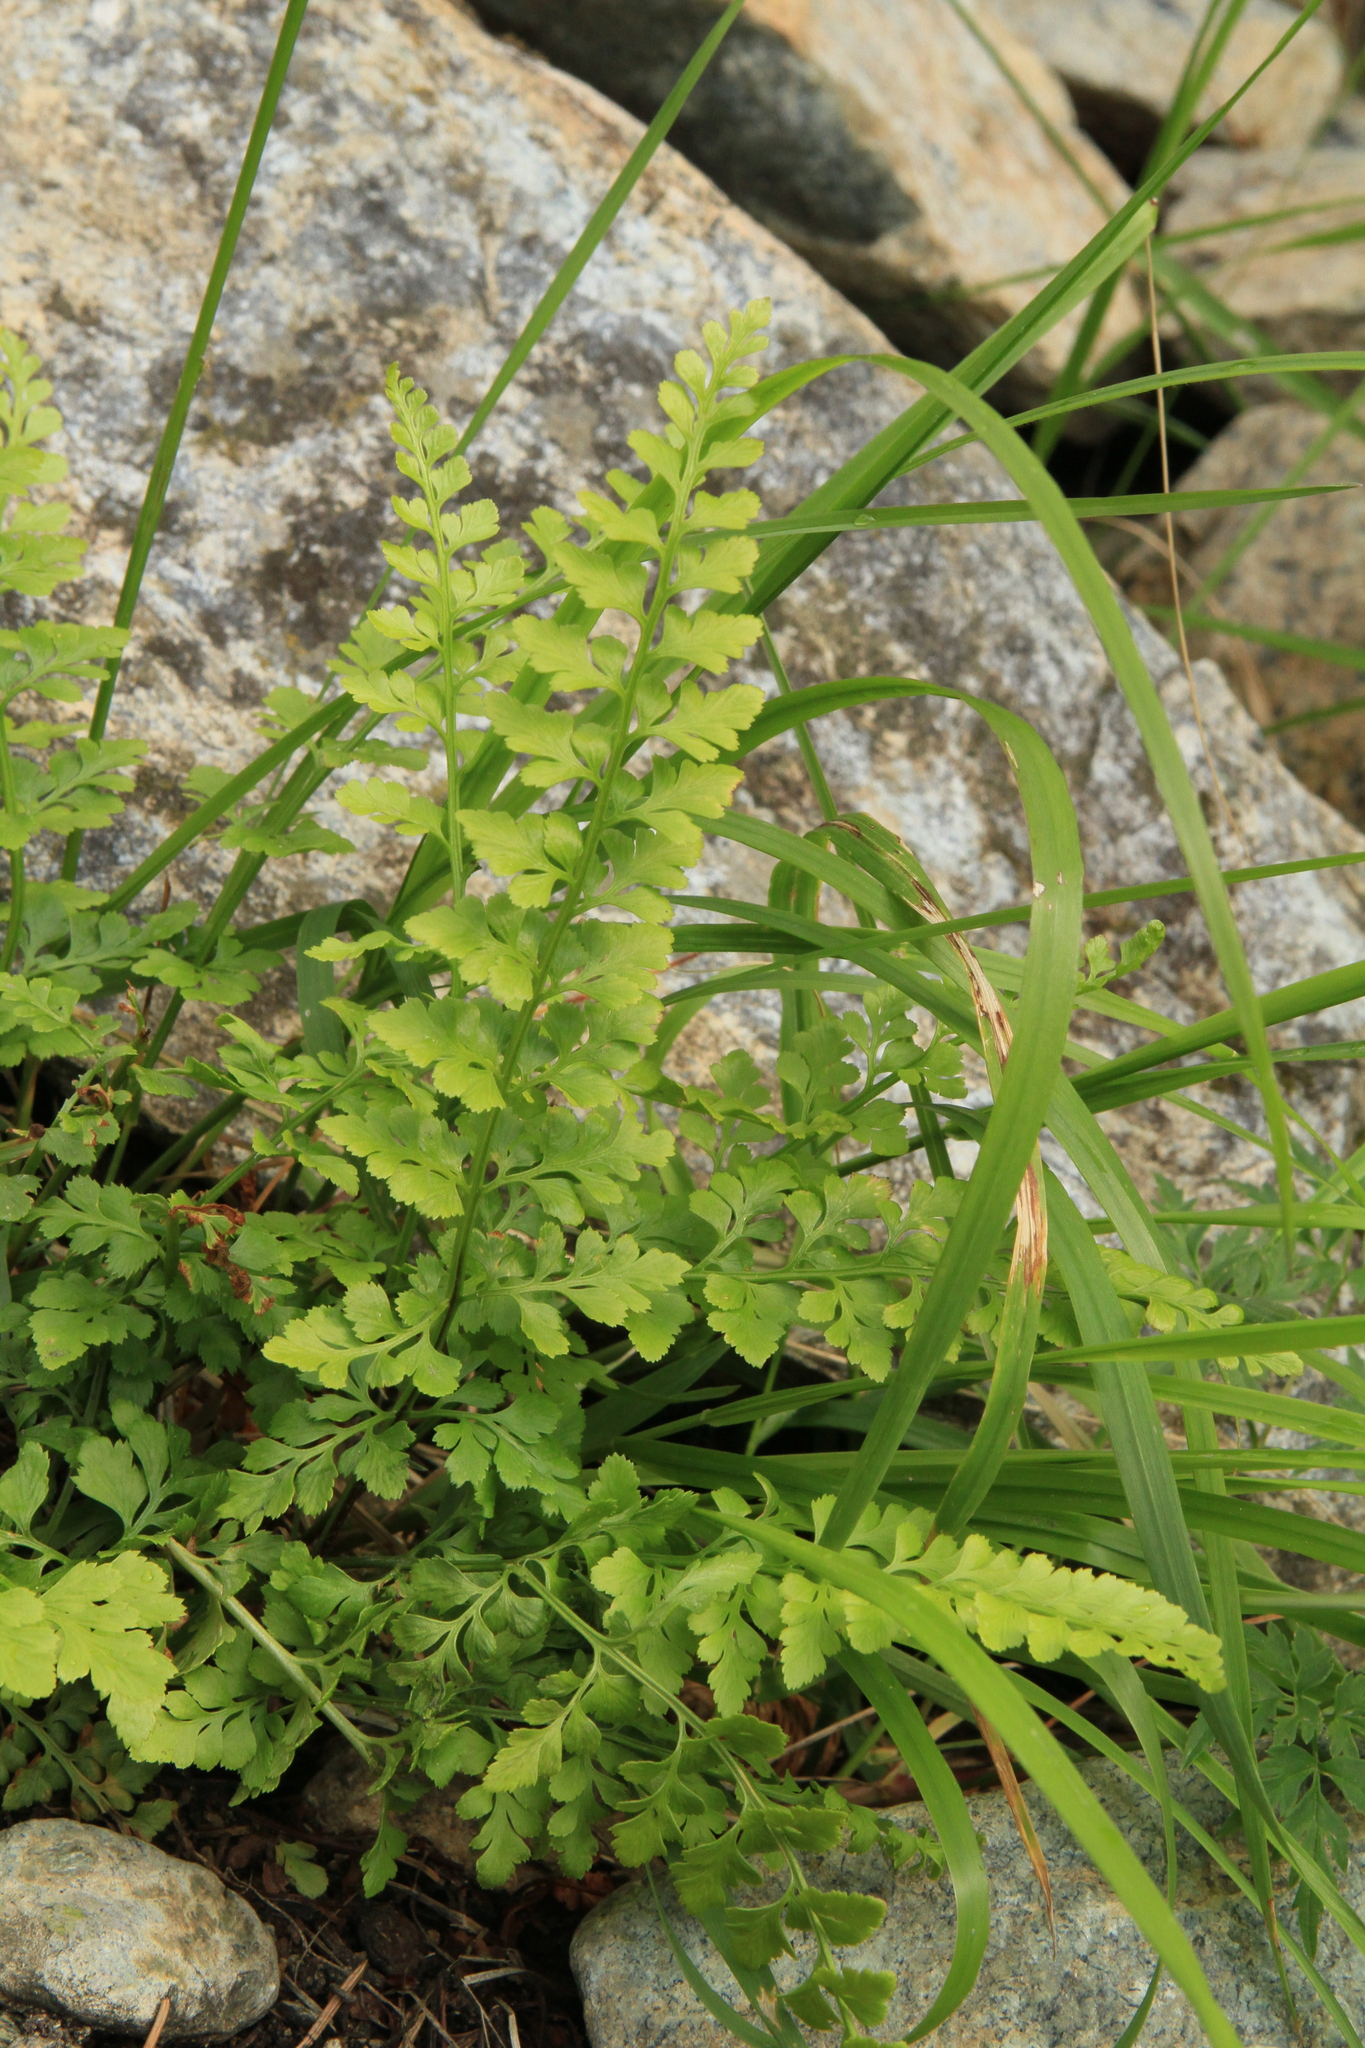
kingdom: Plantae
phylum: Tracheophyta
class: Polypodiopsida
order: Polypodiales
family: Aspleniaceae
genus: Asplenium
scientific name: Asplenium adiantum-nigrum
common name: Black spleenwort
